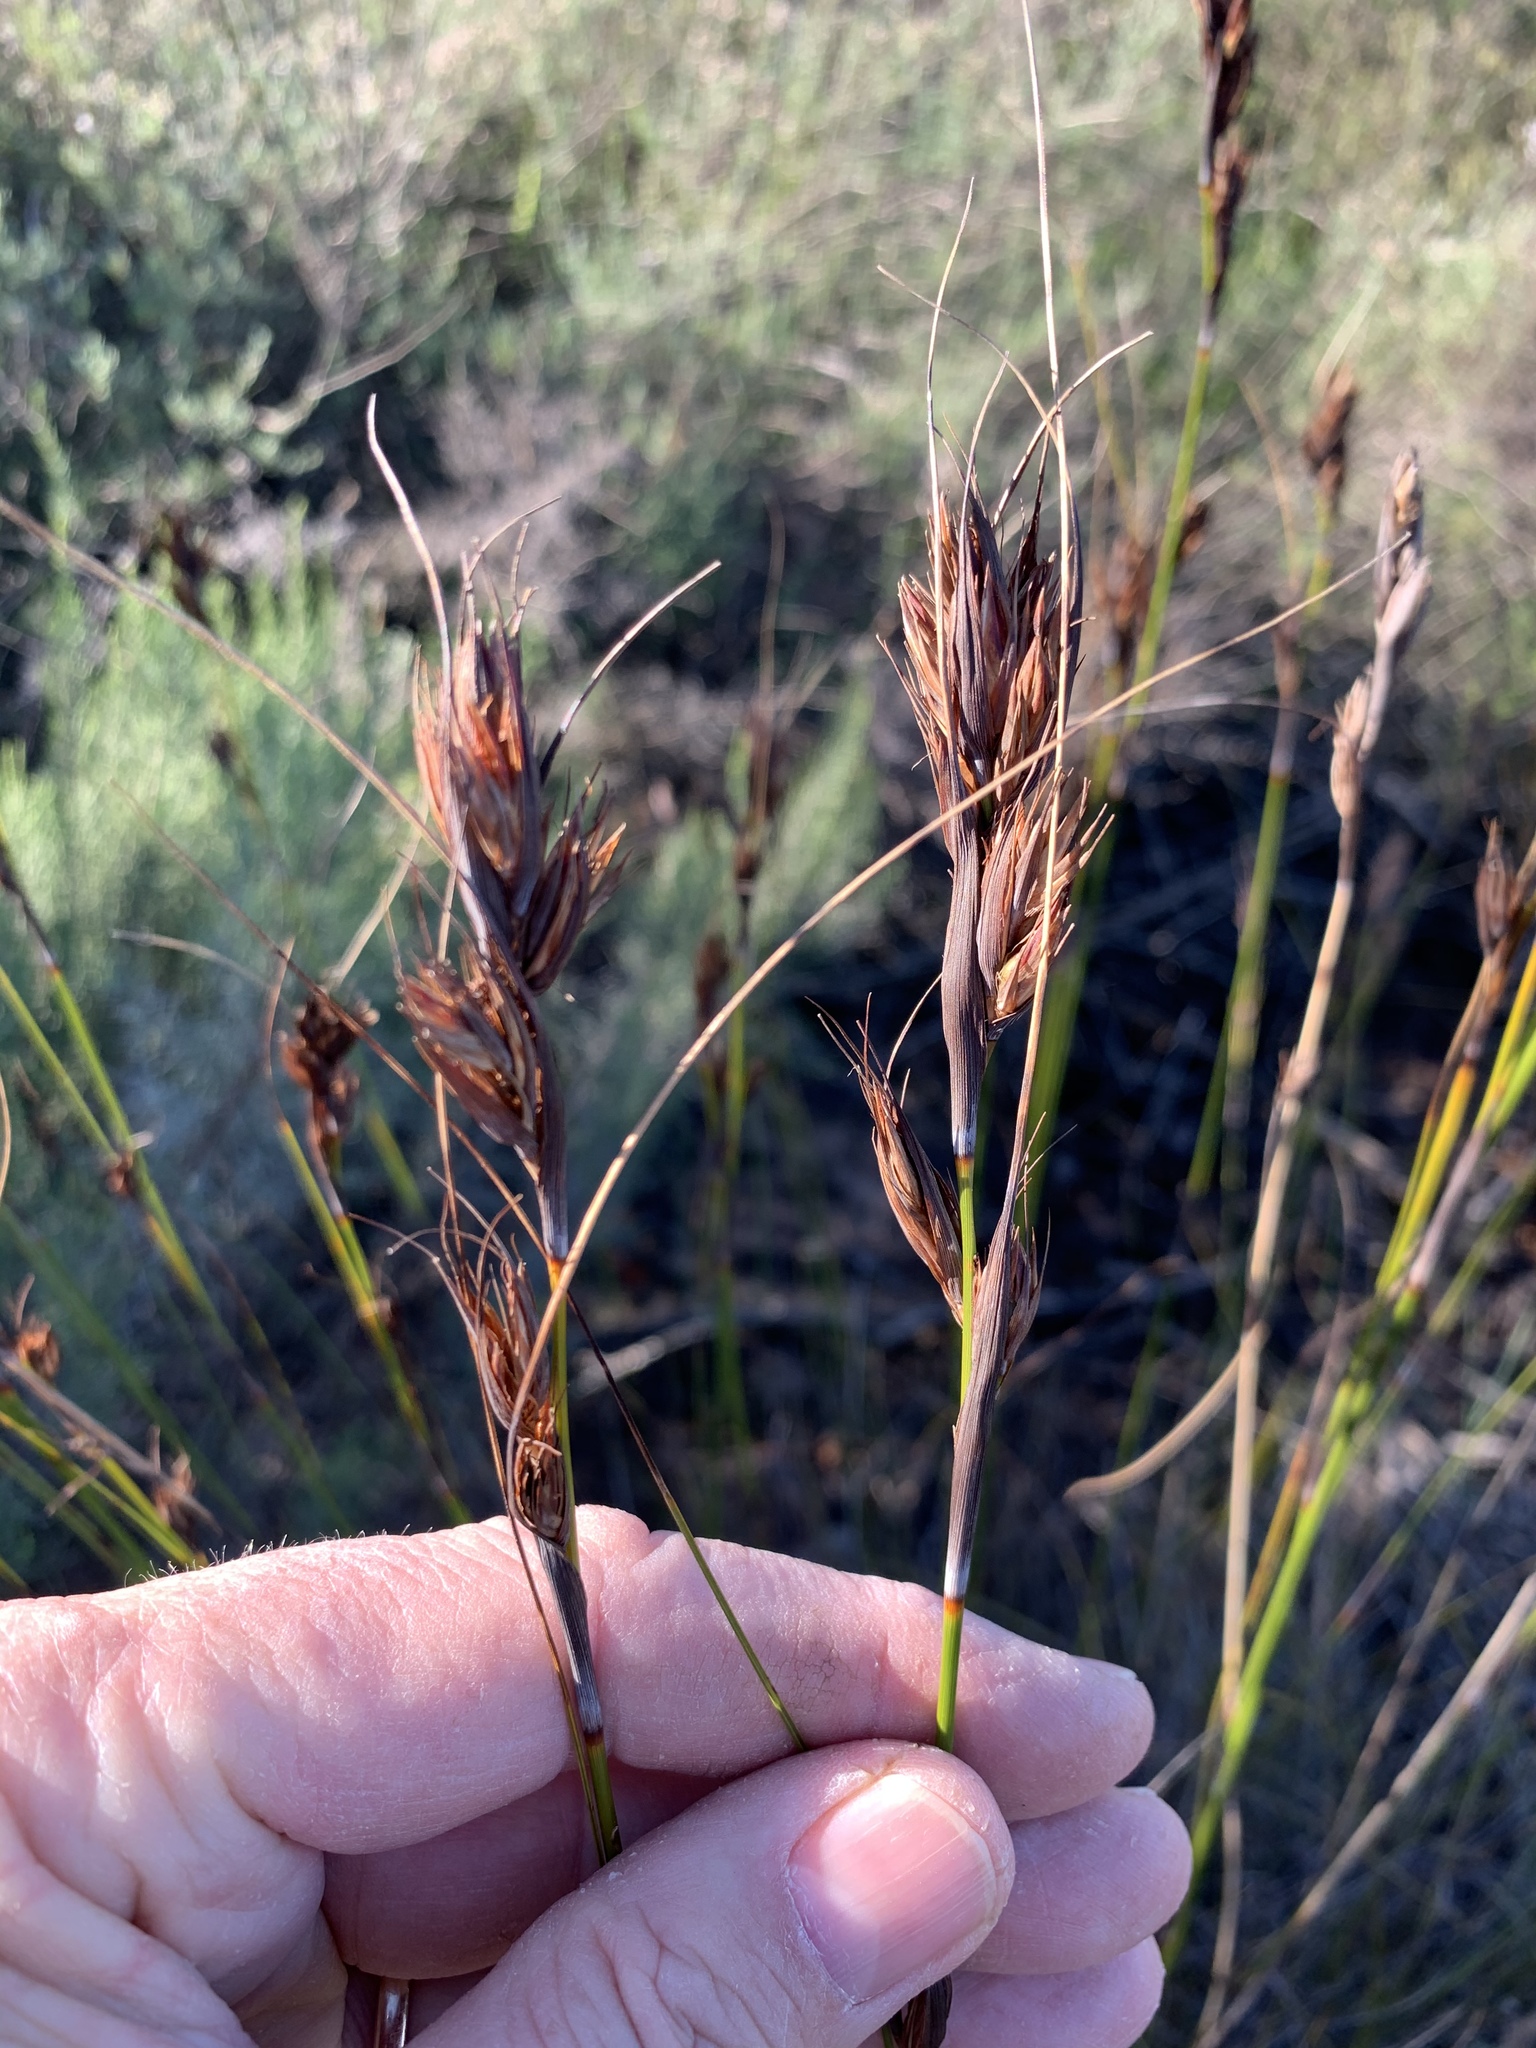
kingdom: Plantae
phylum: Tracheophyta
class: Liliopsida
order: Poales
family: Cyperaceae
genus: Tetraria
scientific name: Tetraria ustulata
